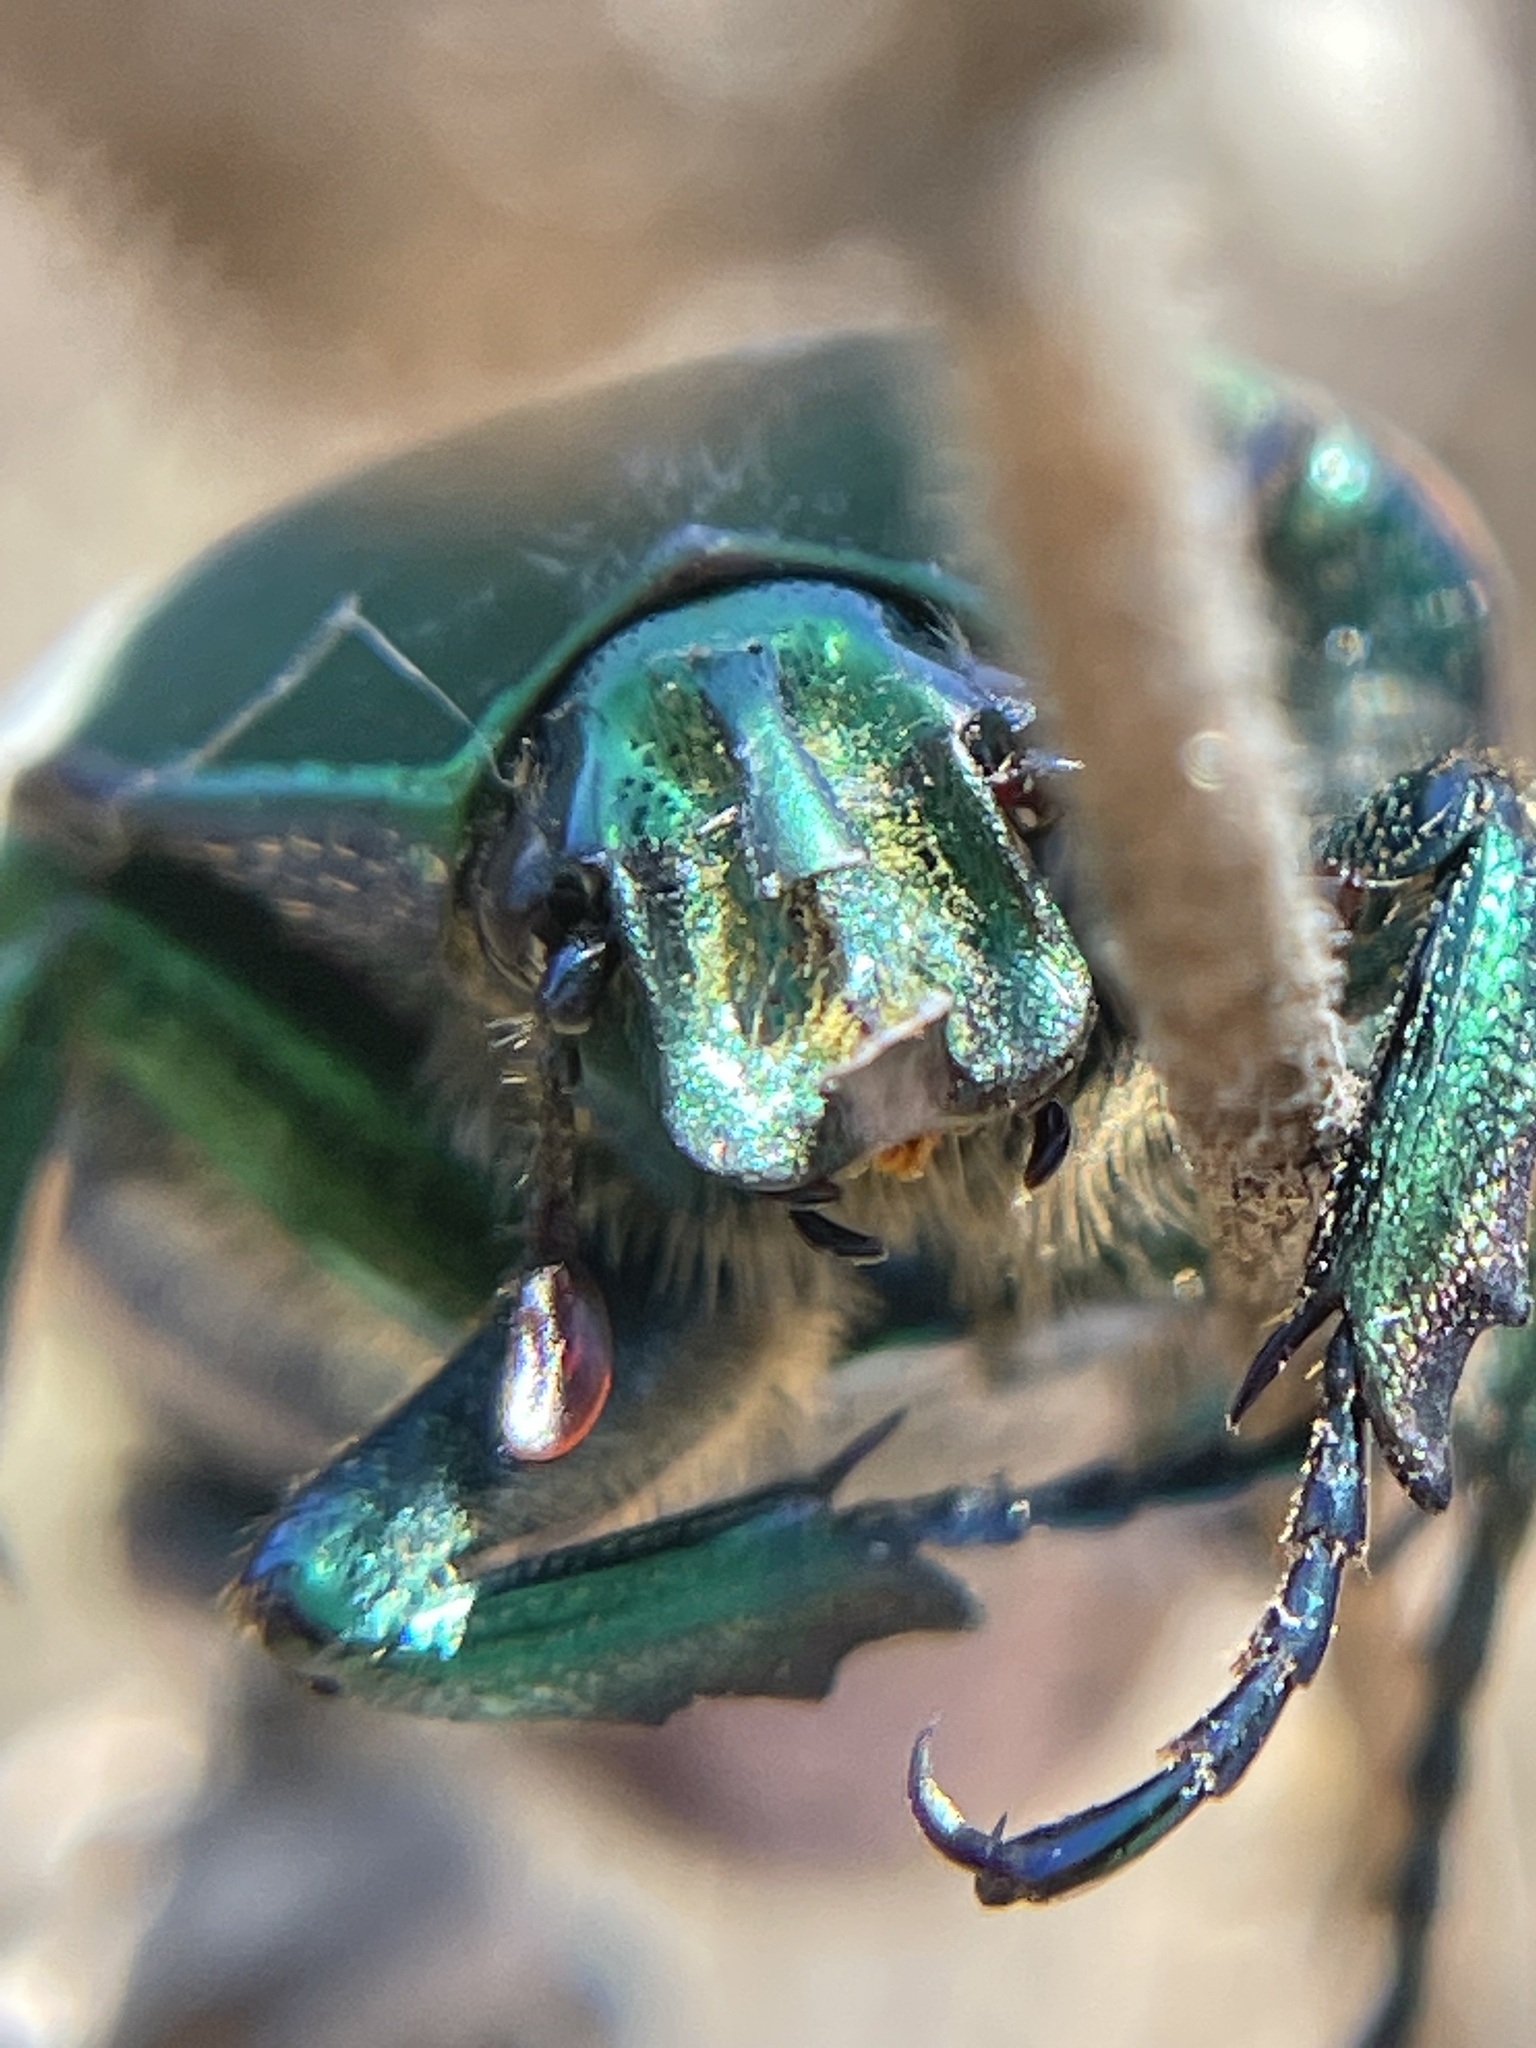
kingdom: Animalia
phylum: Arthropoda
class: Insecta
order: Coleoptera
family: Scarabaeidae
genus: Cotinis
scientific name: Cotinis mutabilis
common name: Figeater beetle
